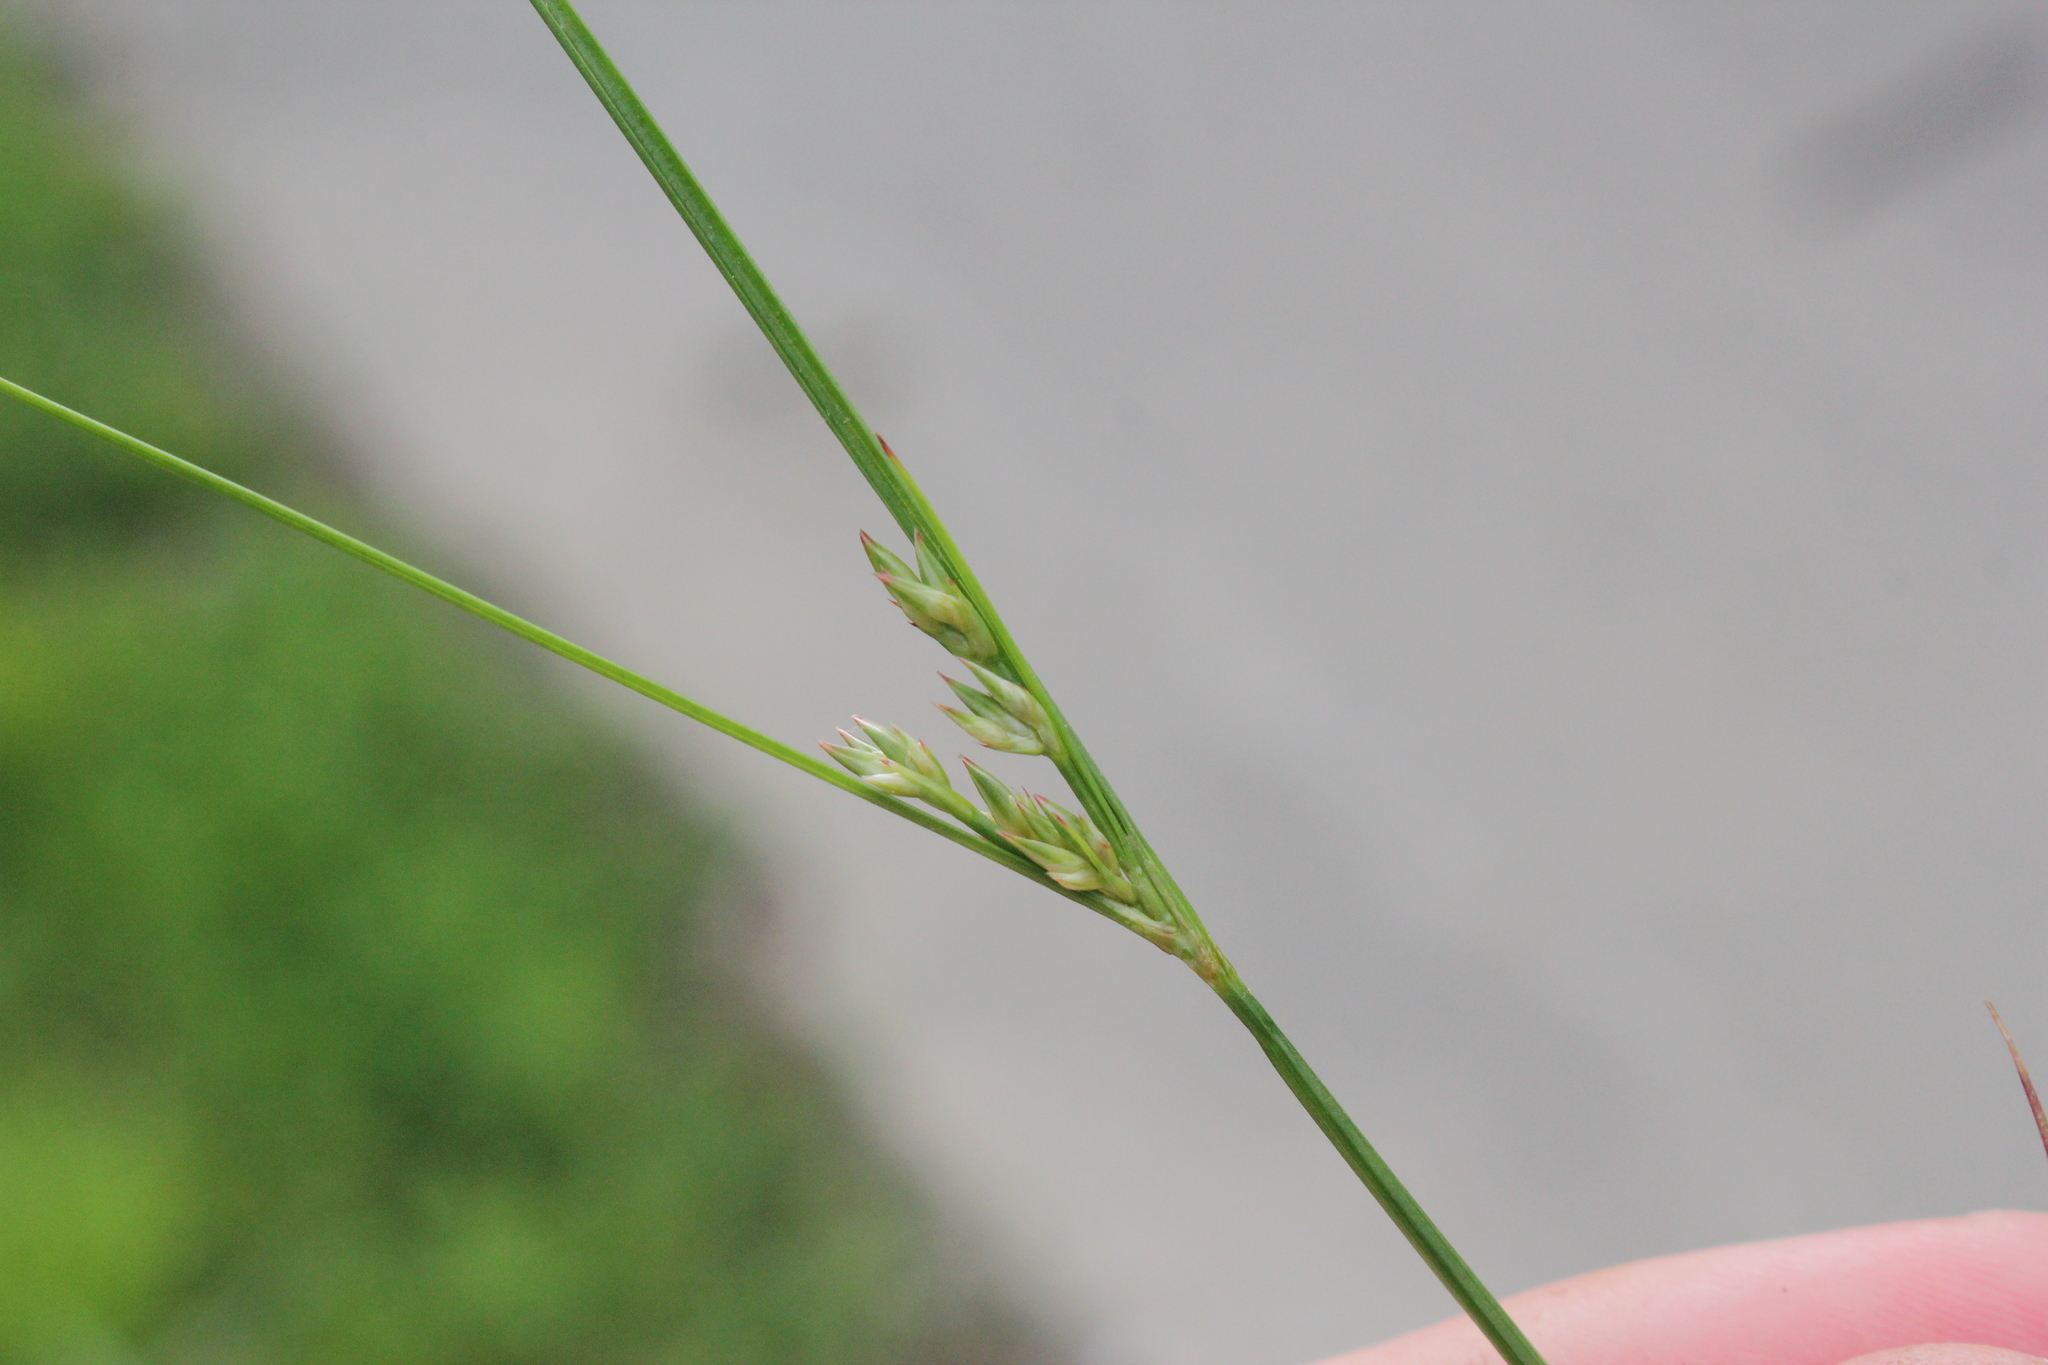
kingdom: Plantae
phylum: Tracheophyta
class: Liliopsida
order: Poales
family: Juncaceae
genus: Juncus
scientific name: Juncus dudleyi
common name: Dudley's rush
